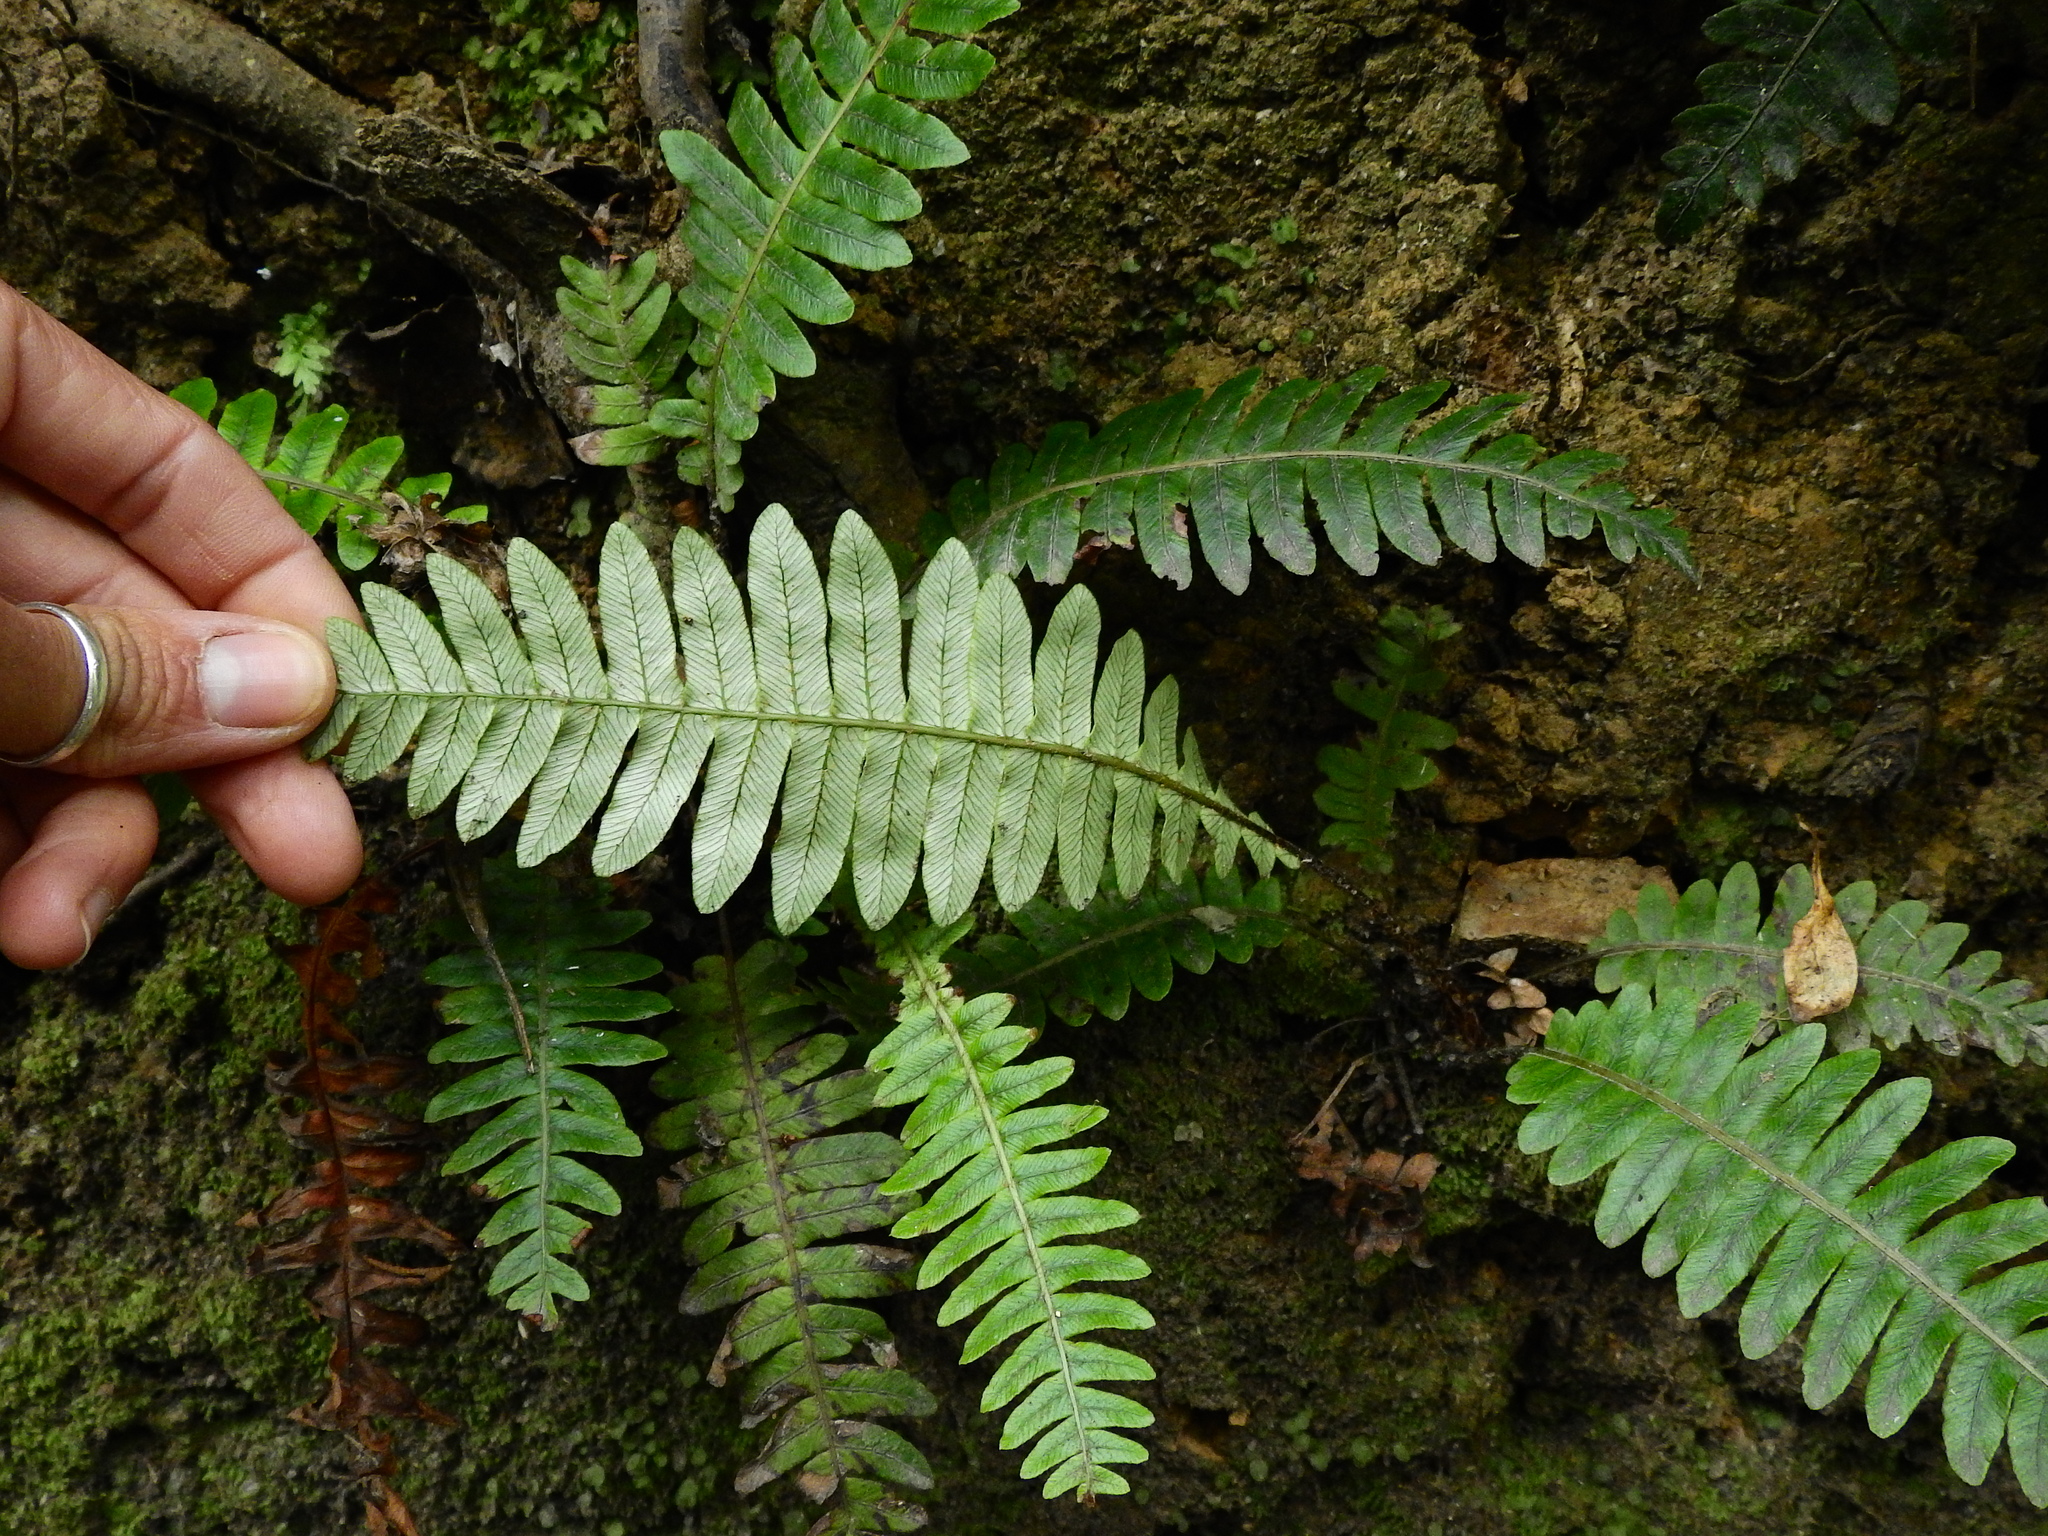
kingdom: Plantae
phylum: Tracheophyta
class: Polypodiopsida
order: Polypodiales
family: Blechnaceae
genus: Lomaria
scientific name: Lomaria discolor
